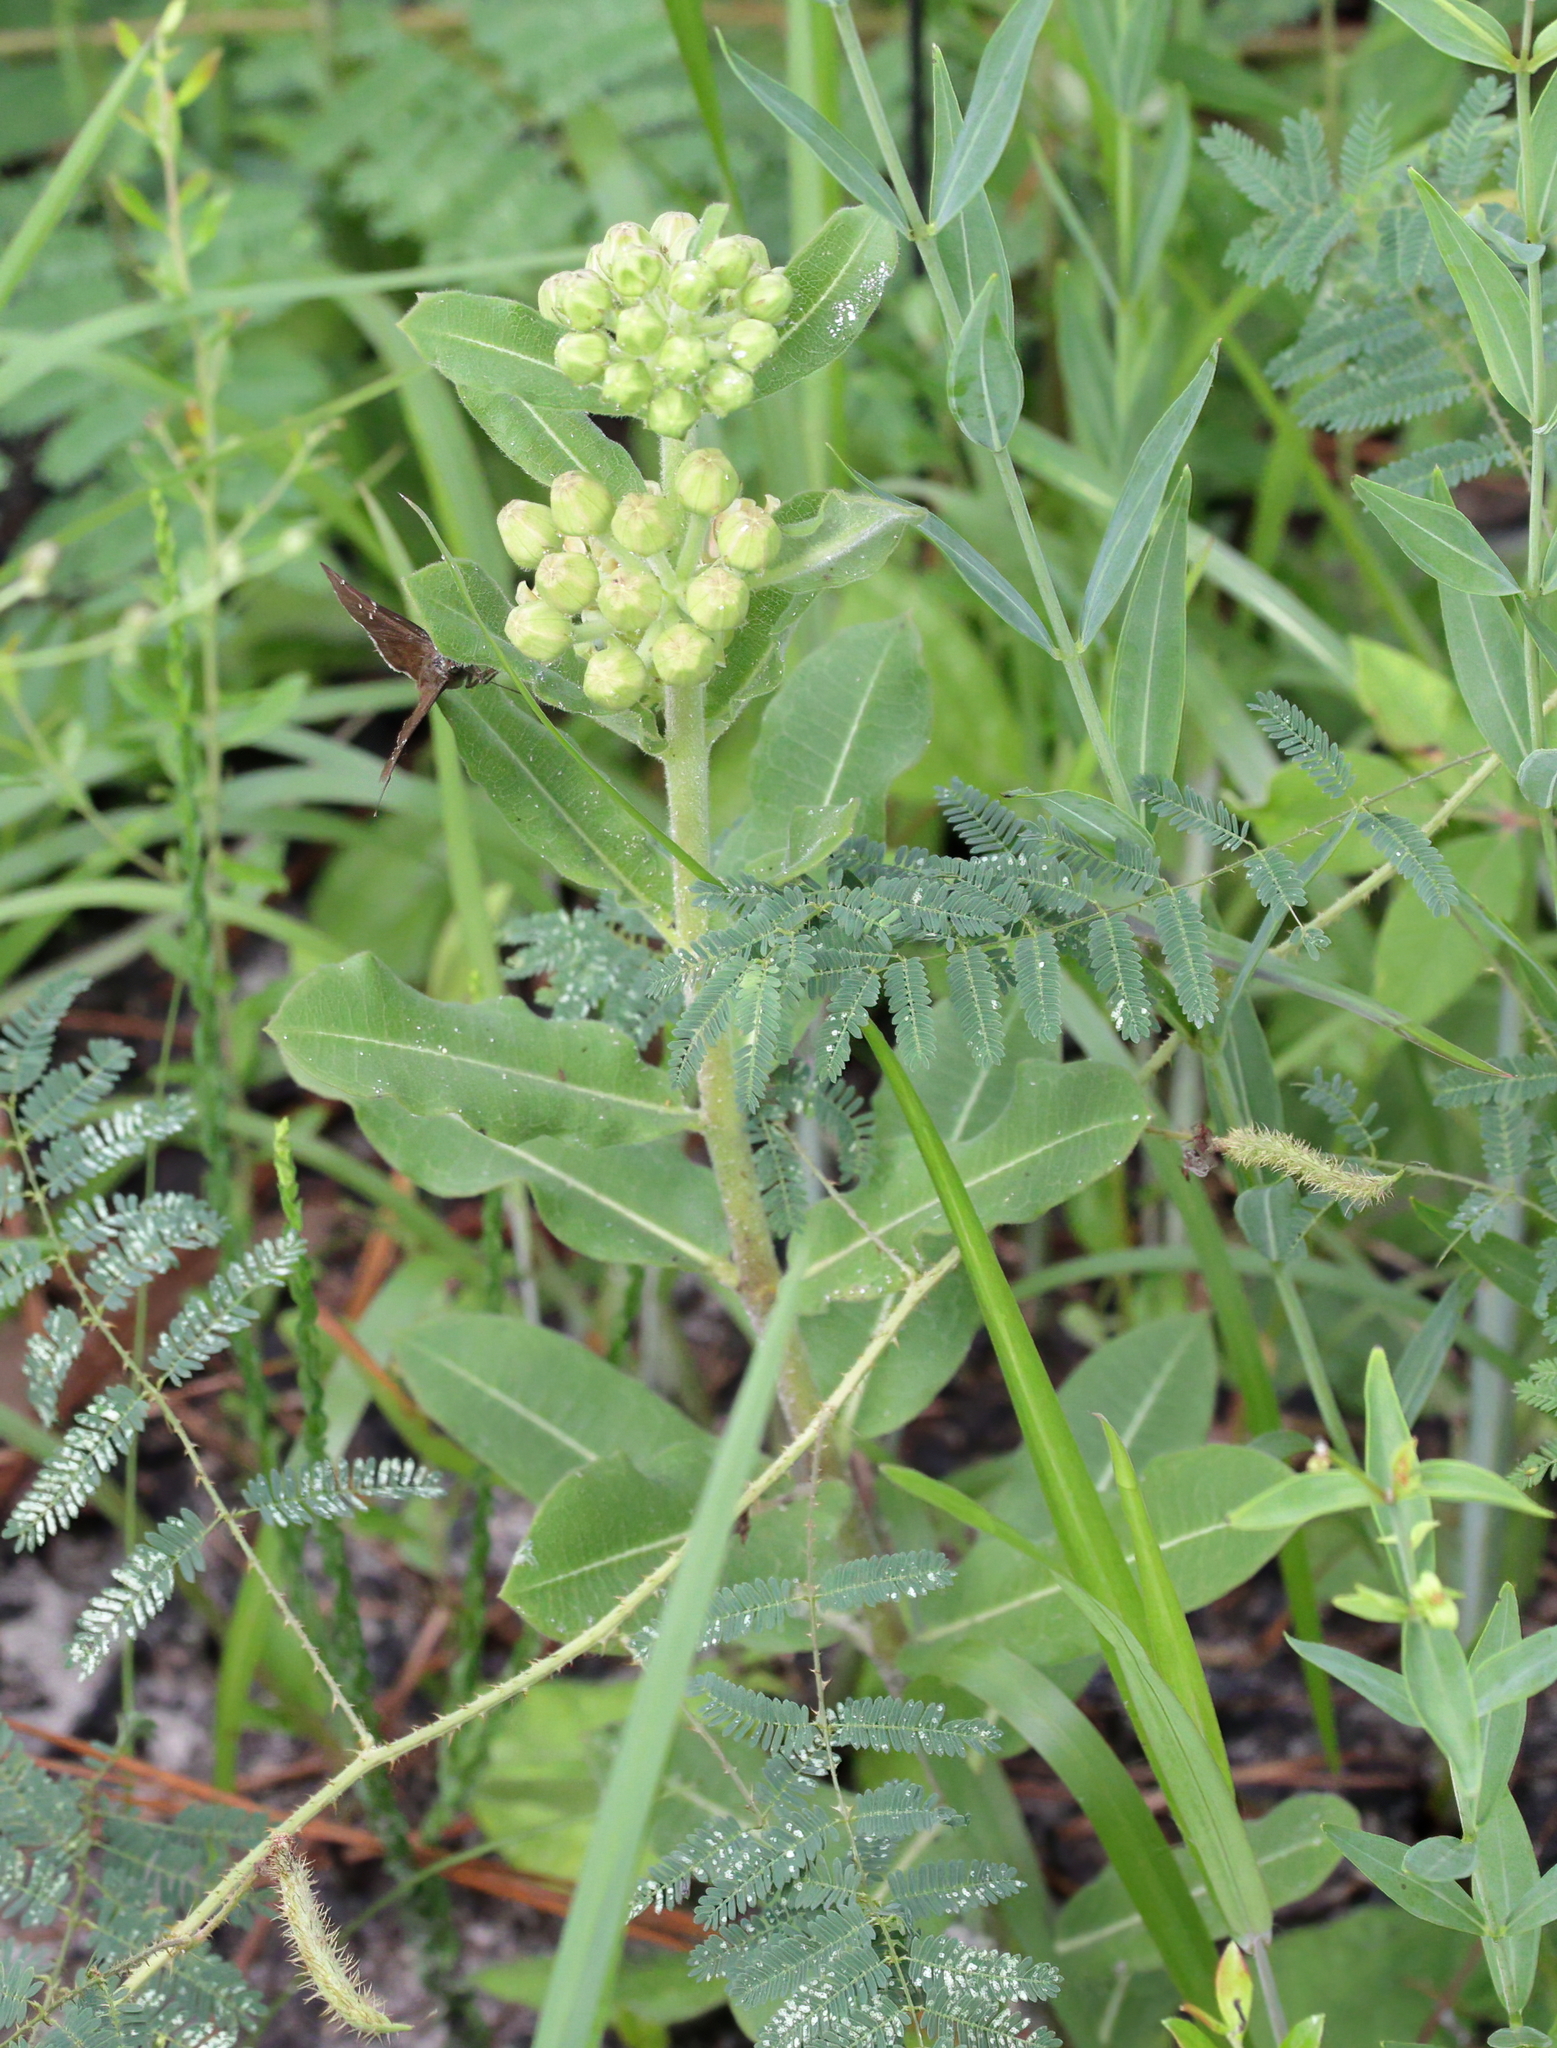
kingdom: Plantae
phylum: Tracheophyta
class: Magnoliopsida
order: Gentianales
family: Apocynaceae
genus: Asclepias
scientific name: Asclepias obovata
